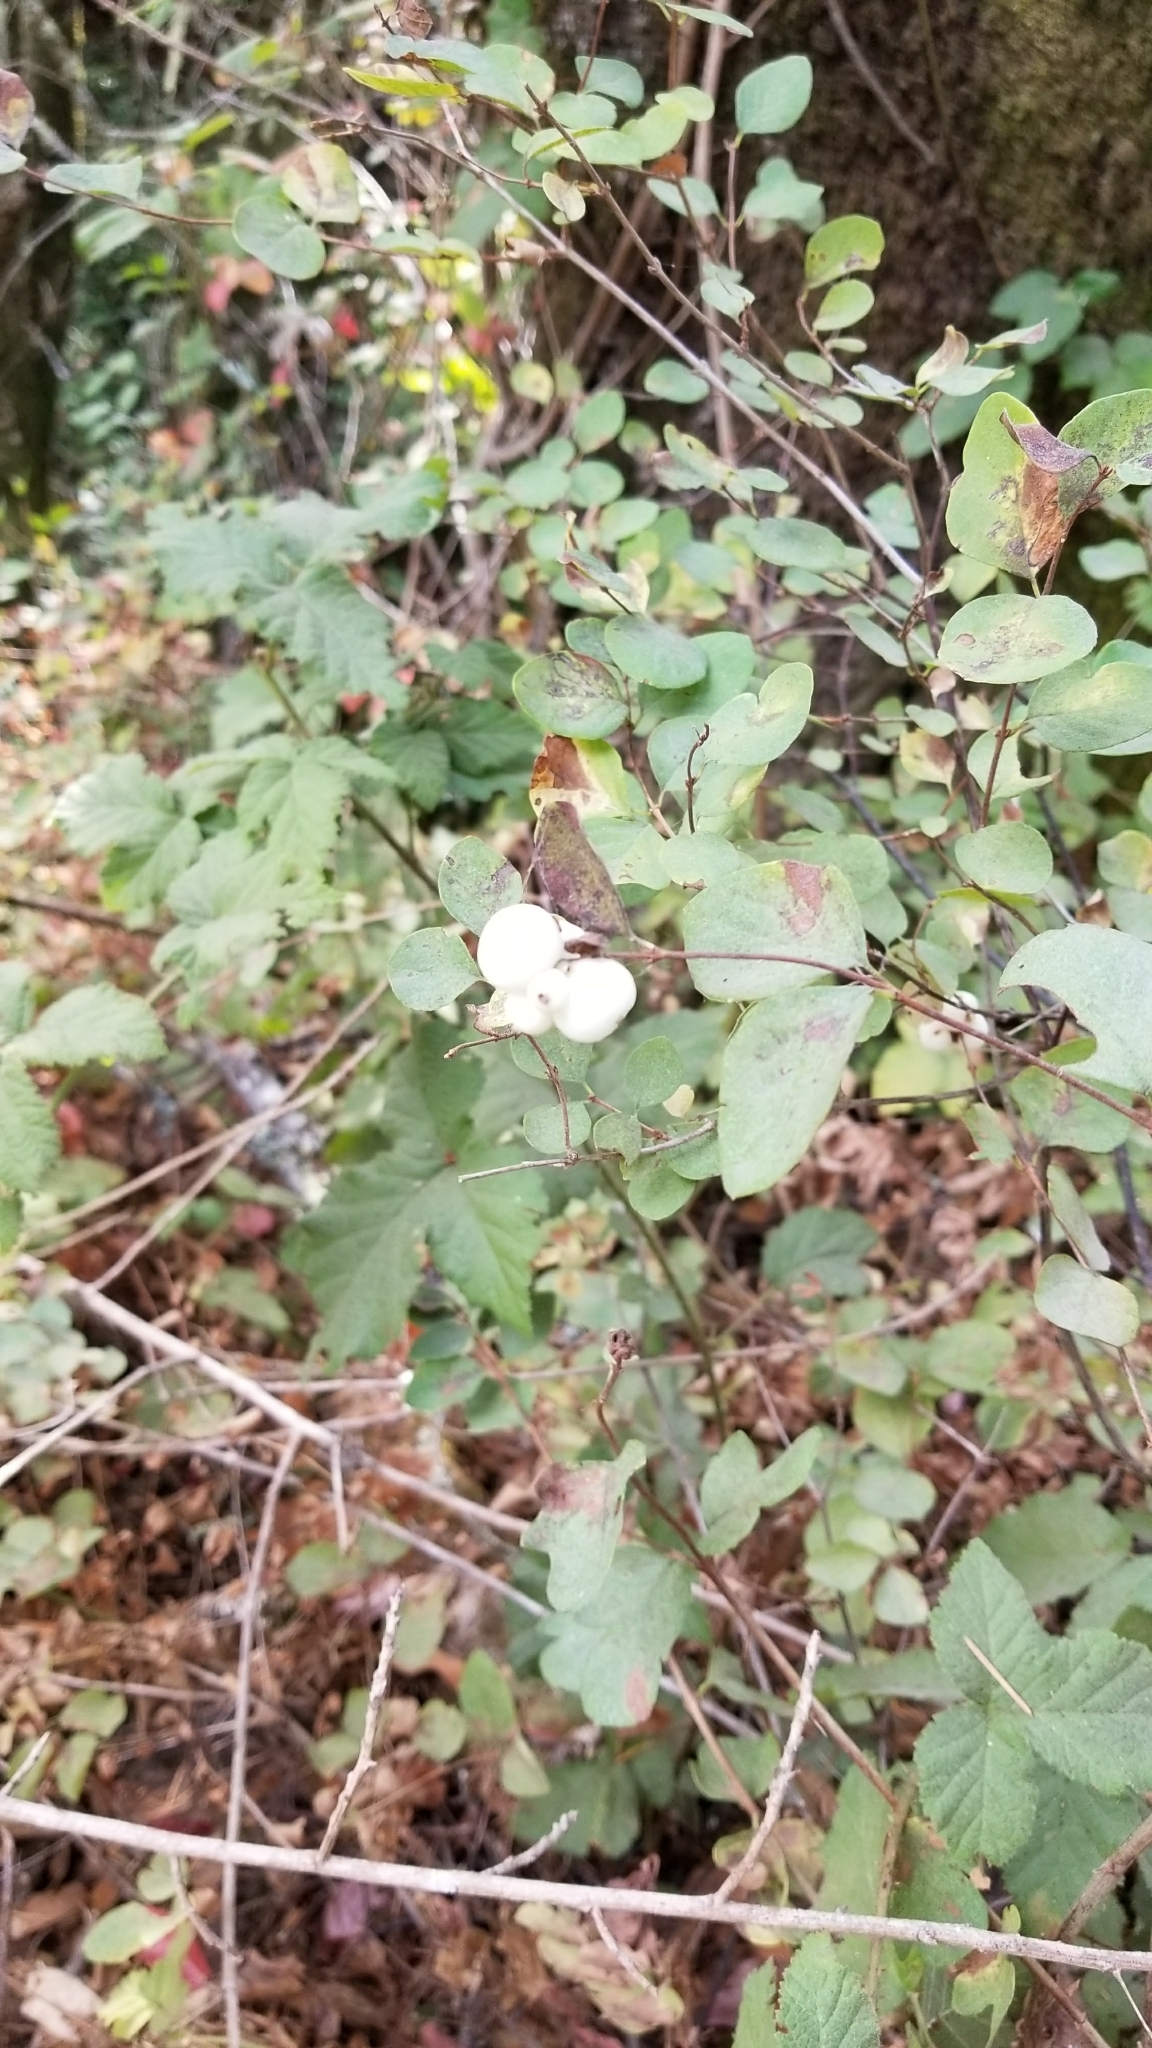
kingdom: Plantae
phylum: Tracheophyta
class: Magnoliopsida
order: Dipsacales
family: Caprifoliaceae
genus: Symphoricarpos
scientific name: Symphoricarpos albus
